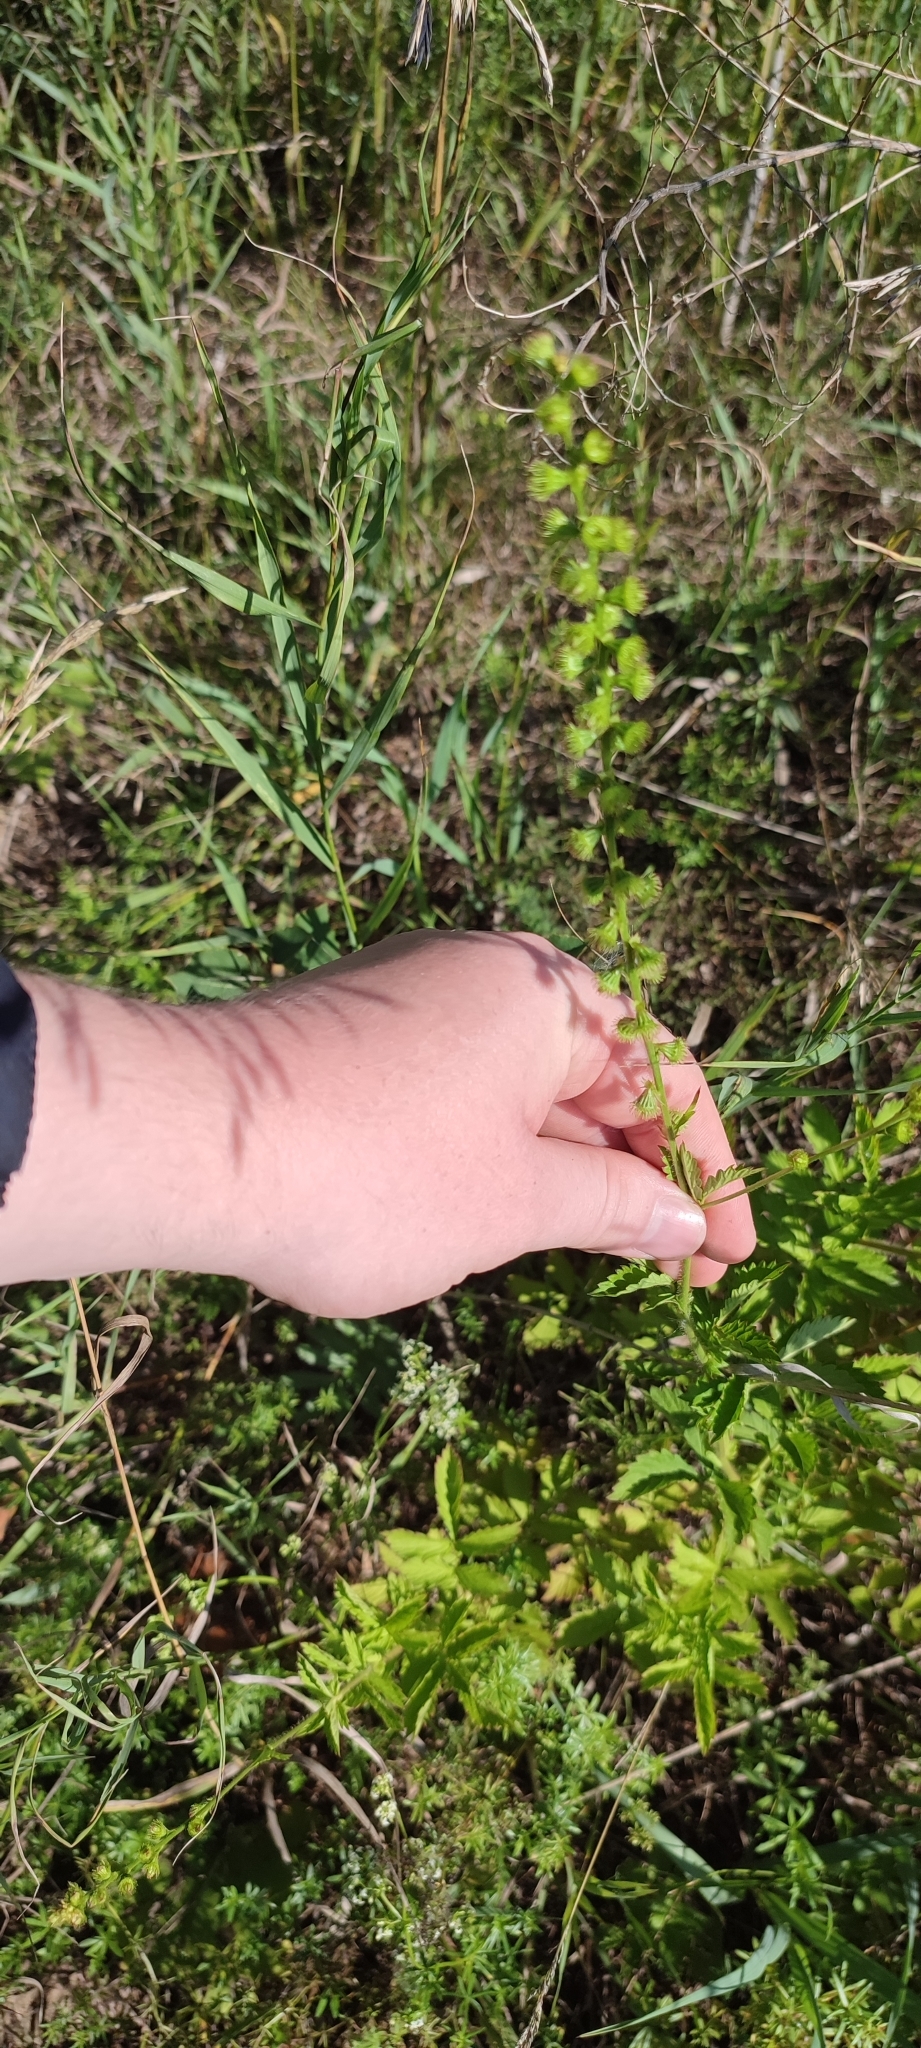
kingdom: Plantae
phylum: Tracheophyta
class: Magnoliopsida
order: Rosales
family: Rosaceae
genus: Agrimonia
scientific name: Agrimonia pilosa
